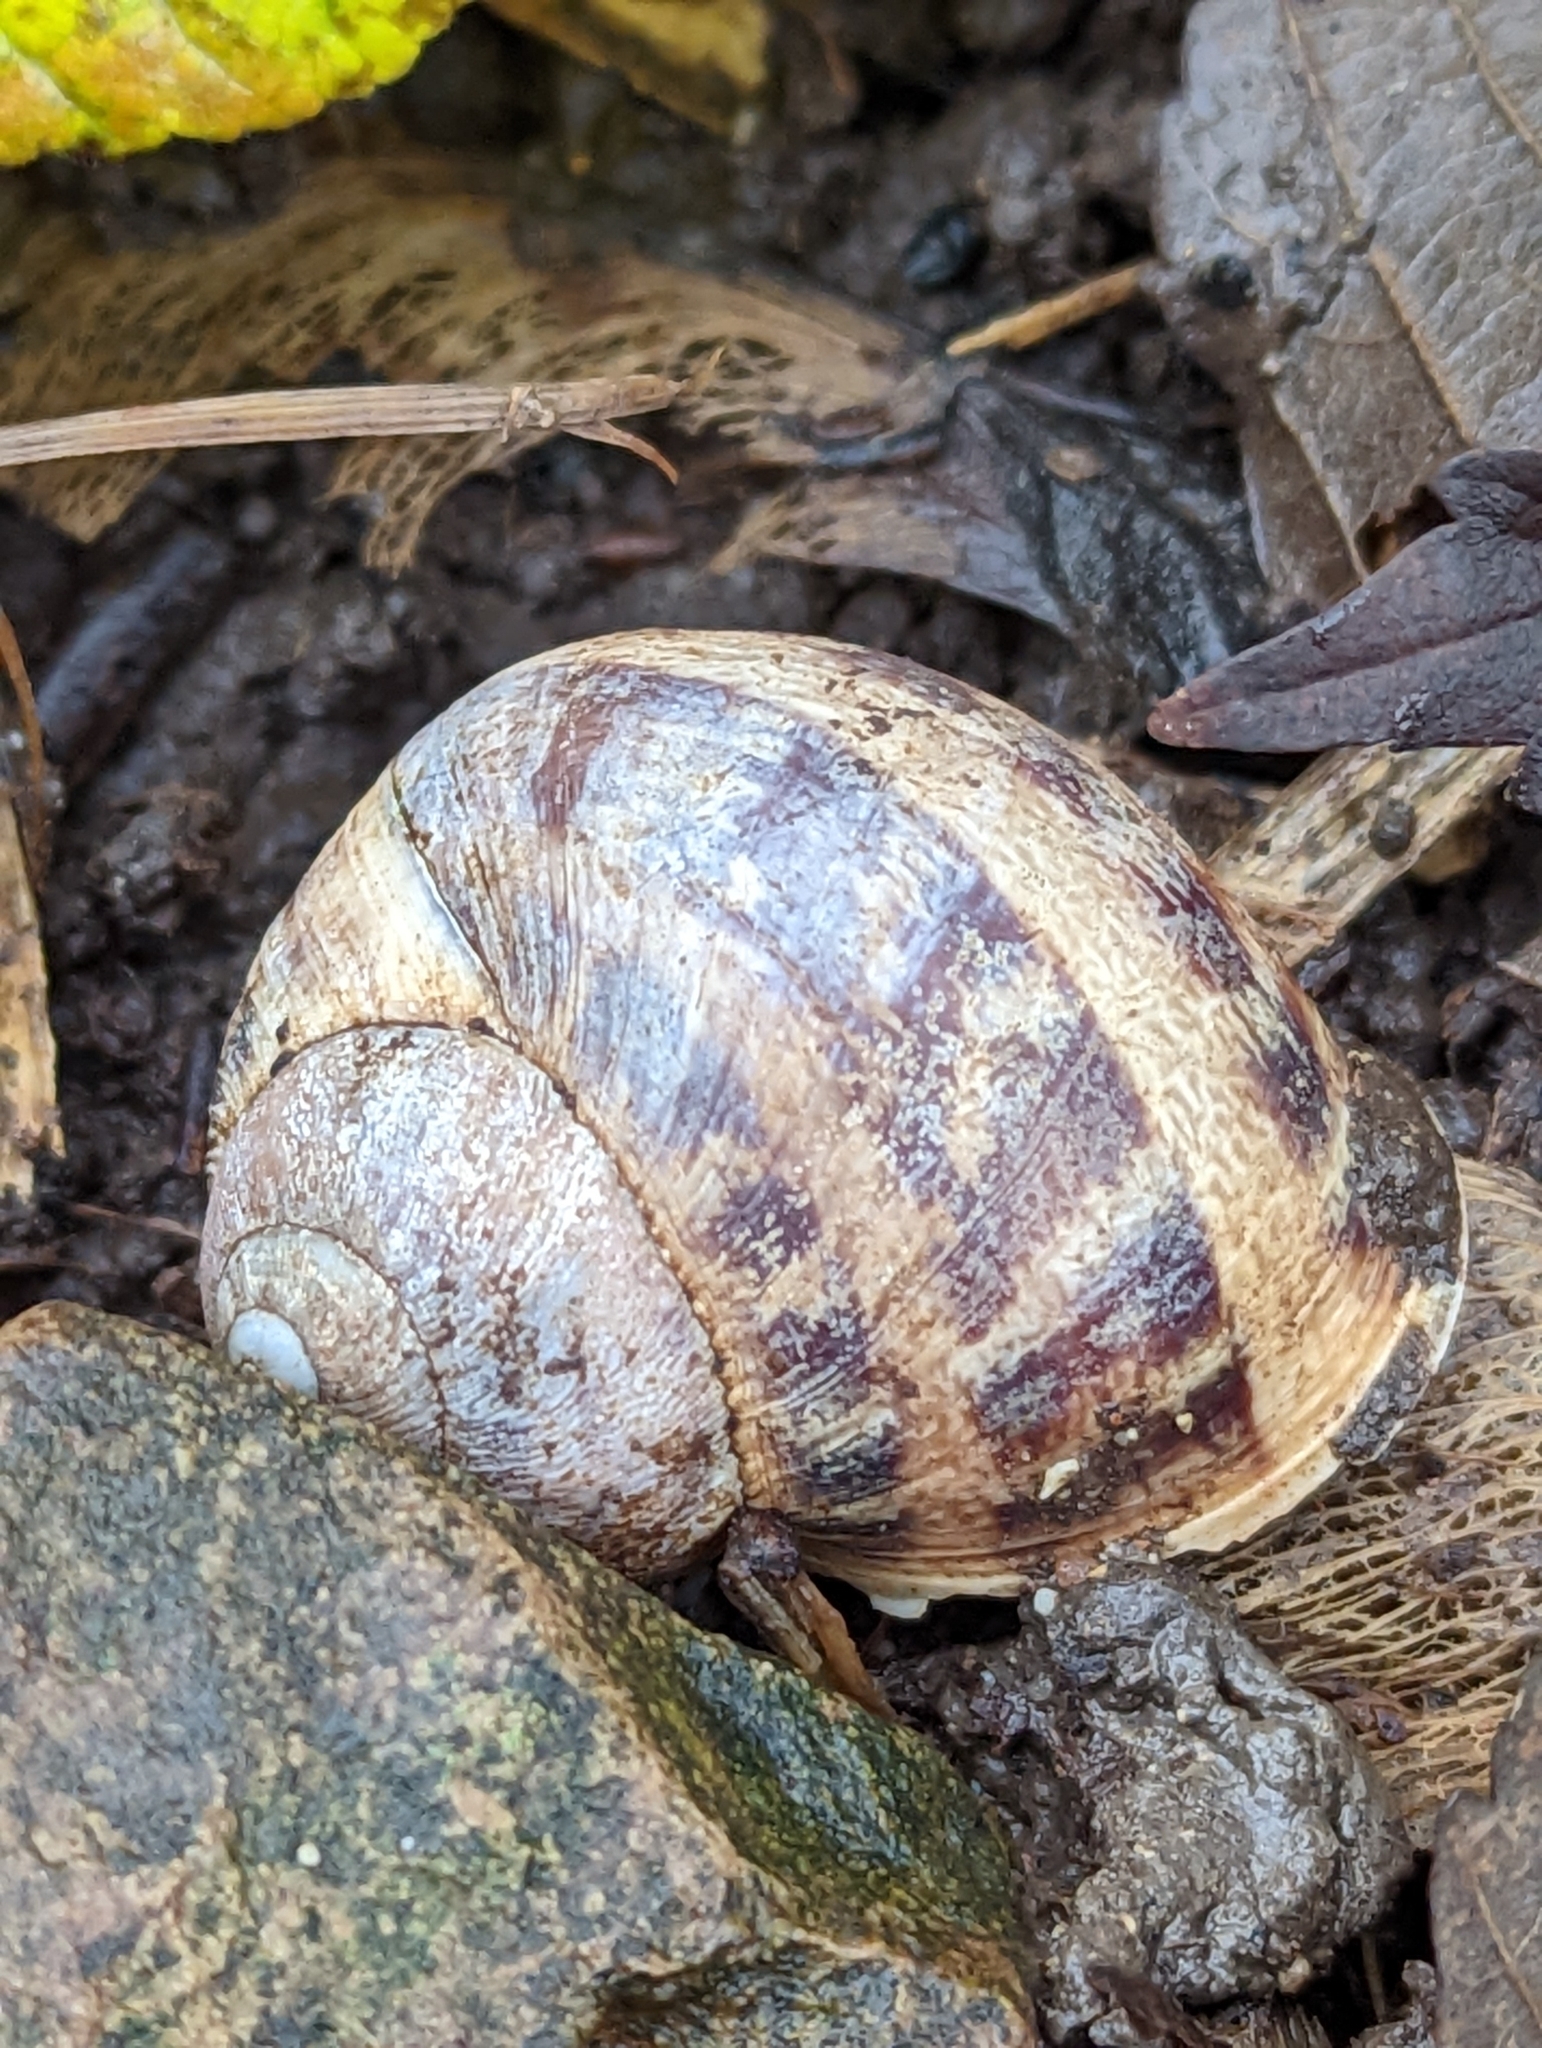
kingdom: Animalia
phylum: Mollusca
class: Gastropoda
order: Stylommatophora
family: Helicidae
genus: Cornu
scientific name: Cornu aspersum
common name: Brown garden snail
